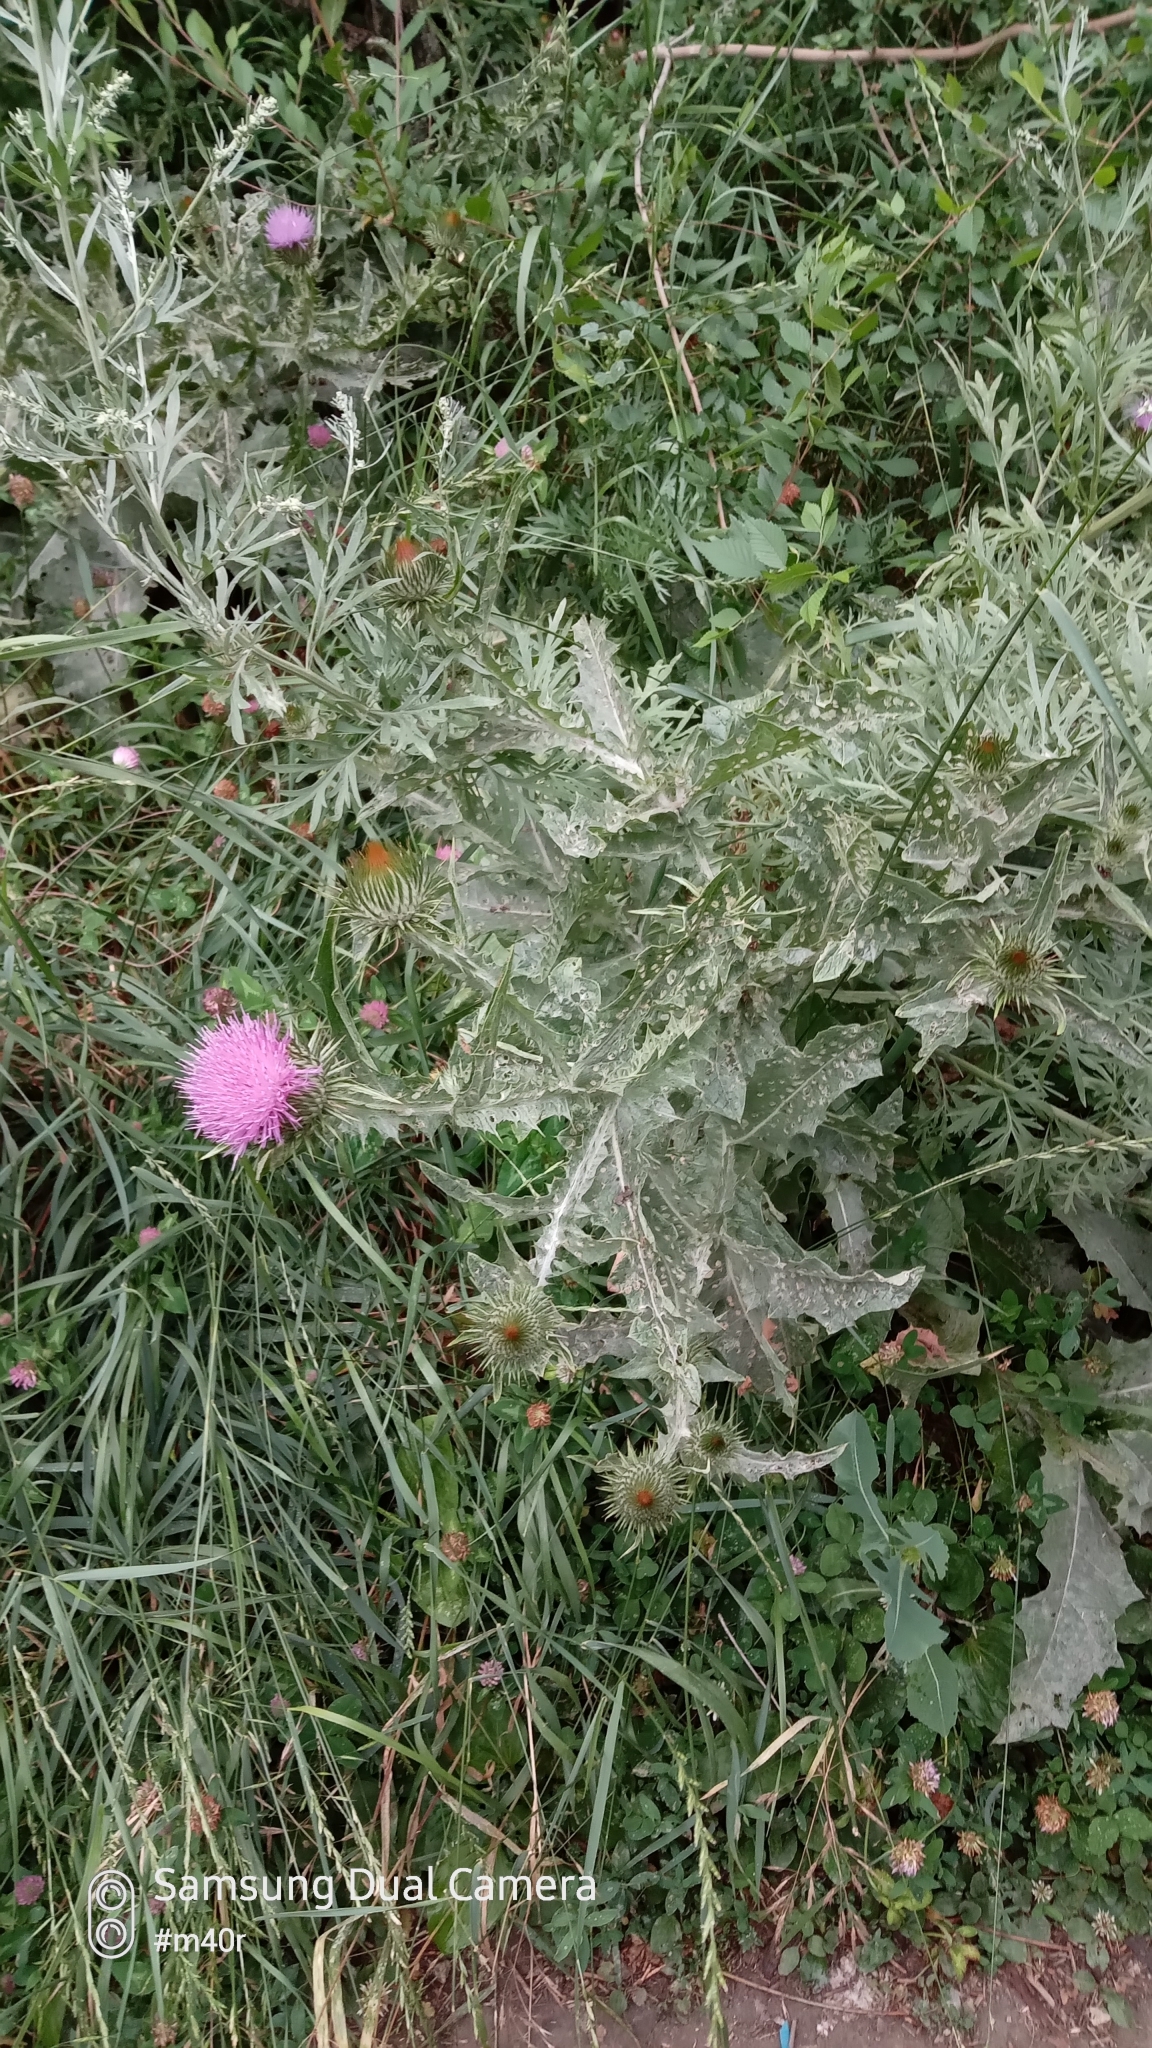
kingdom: Plantae
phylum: Tracheophyta
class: Magnoliopsida
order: Asterales
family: Asteraceae
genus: Onopordum
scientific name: Onopordum acanthium
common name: Scotch thistle
